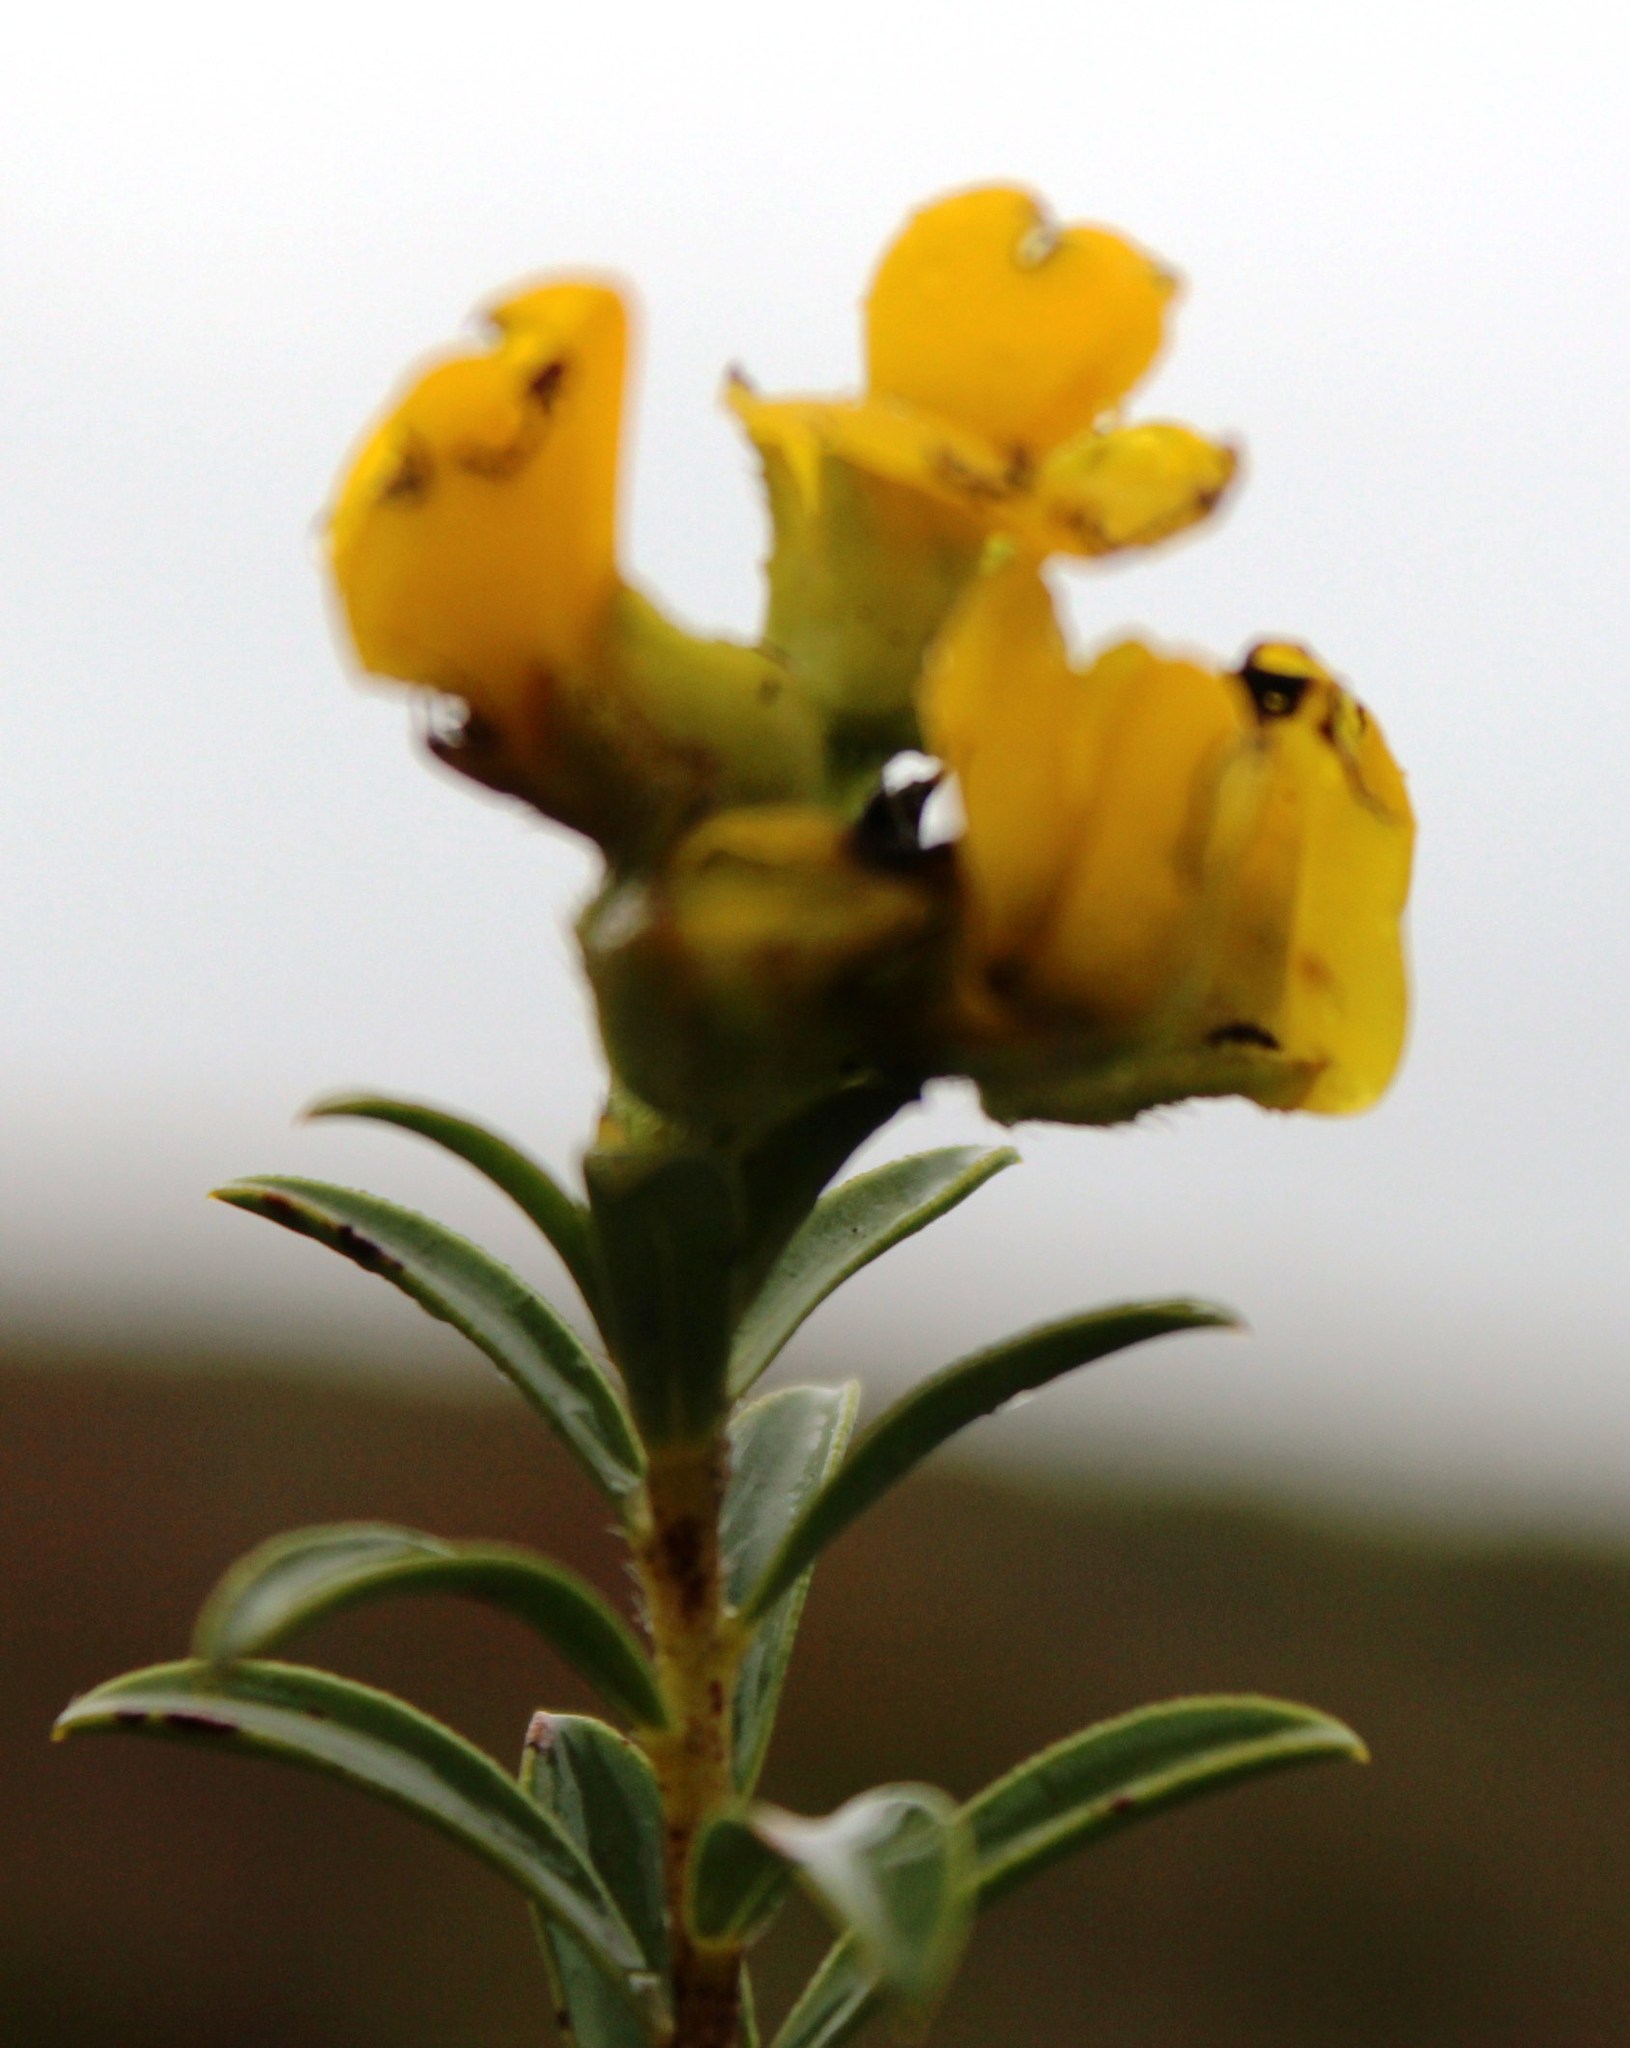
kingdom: Plantae
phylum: Tracheophyta
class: Magnoliopsida
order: Fabales
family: Fabaceae
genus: Liparia
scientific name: Liparia hirsuta
